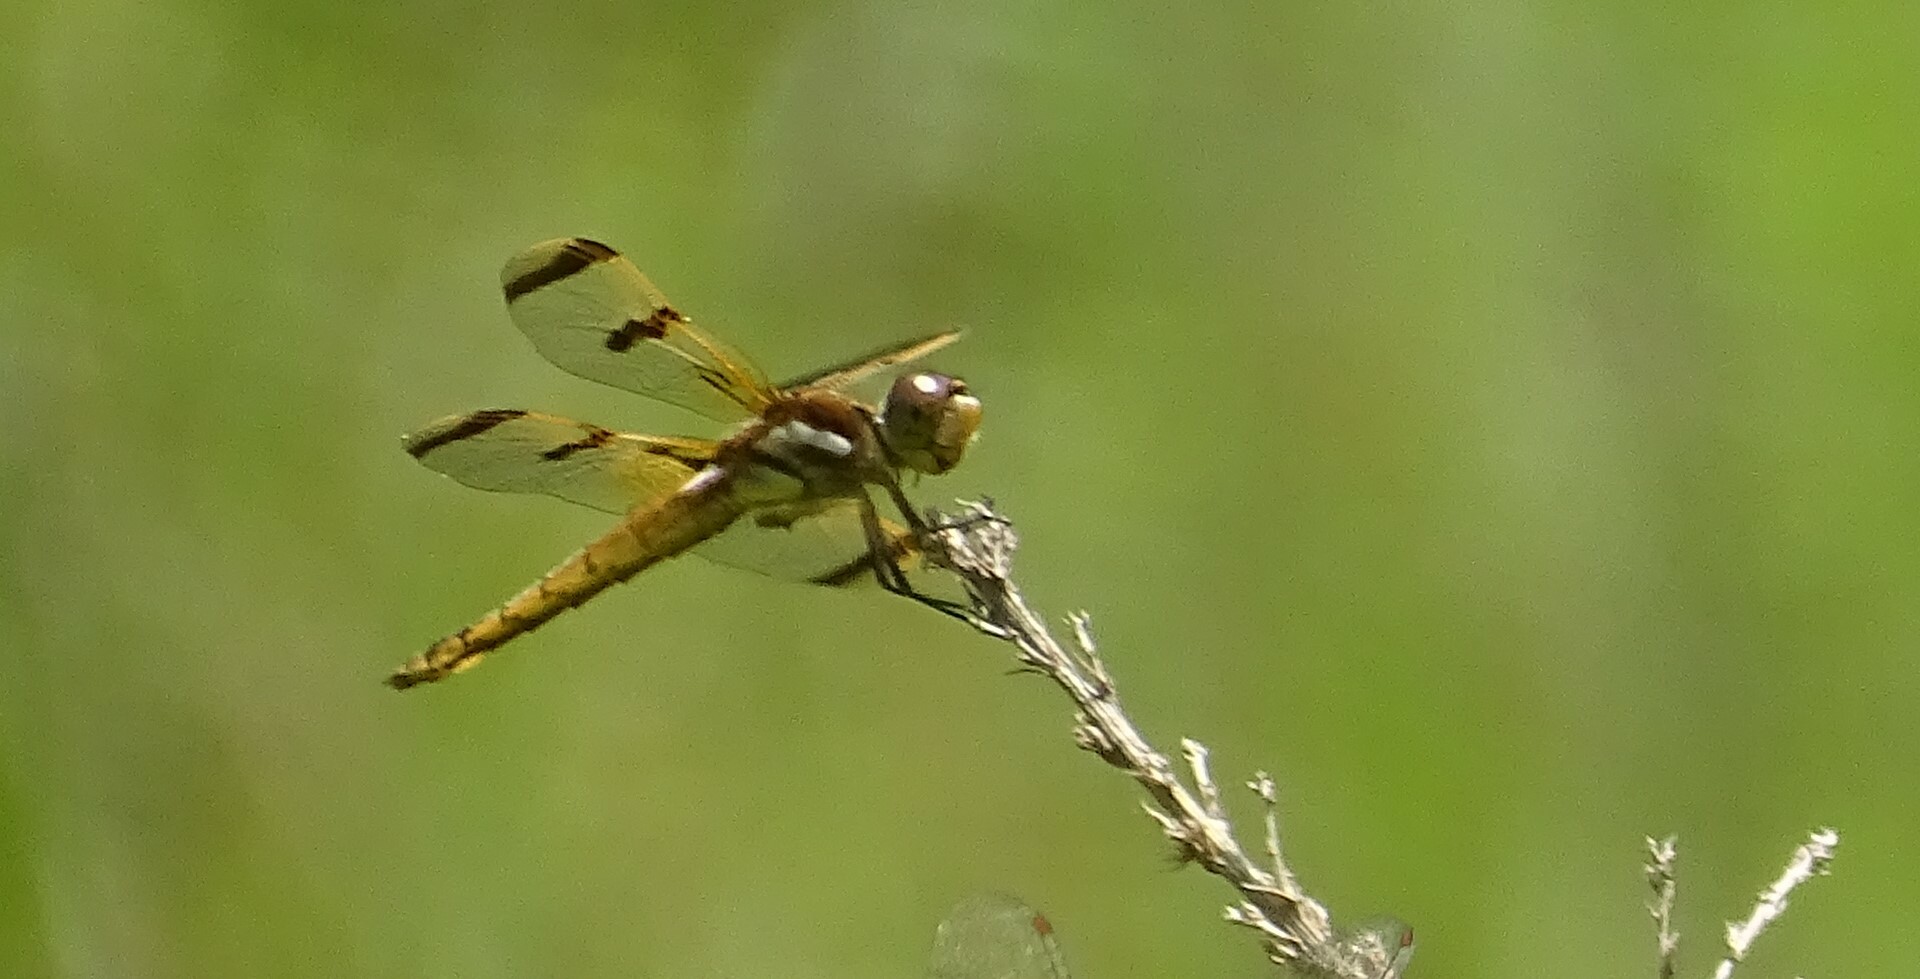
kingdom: Animalia
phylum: Arthropoda
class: Insecta
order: Odonata
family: Libellulidae
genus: Libellula
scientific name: Libellula semifasciata
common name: Painted skimmer
